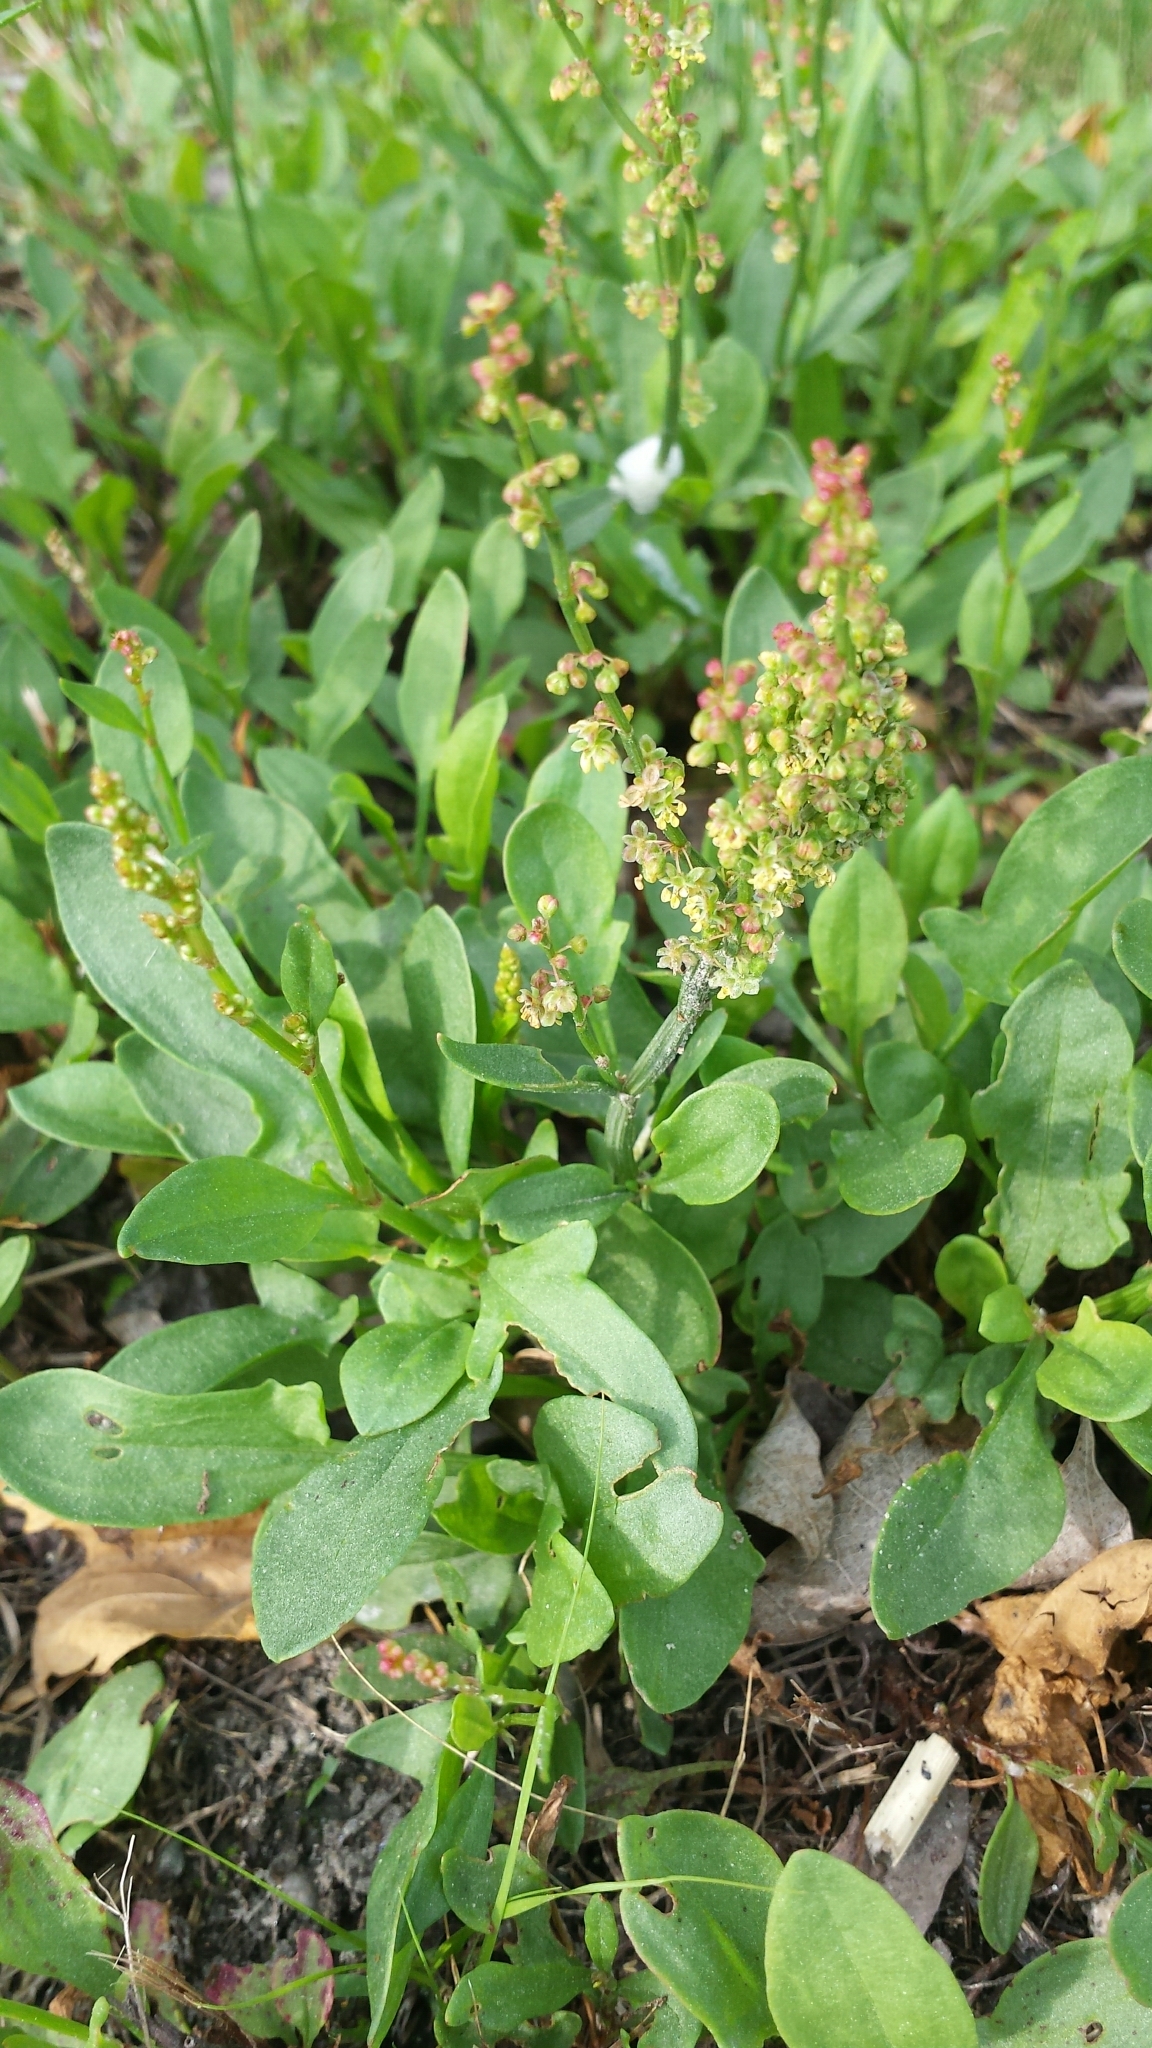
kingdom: Plantae
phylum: Tracheophyta
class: Magnoliopsida
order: Caryophyllales
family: Polygonaceae
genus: Rumex
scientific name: Rumex acetosella
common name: Common sheep sorrel
